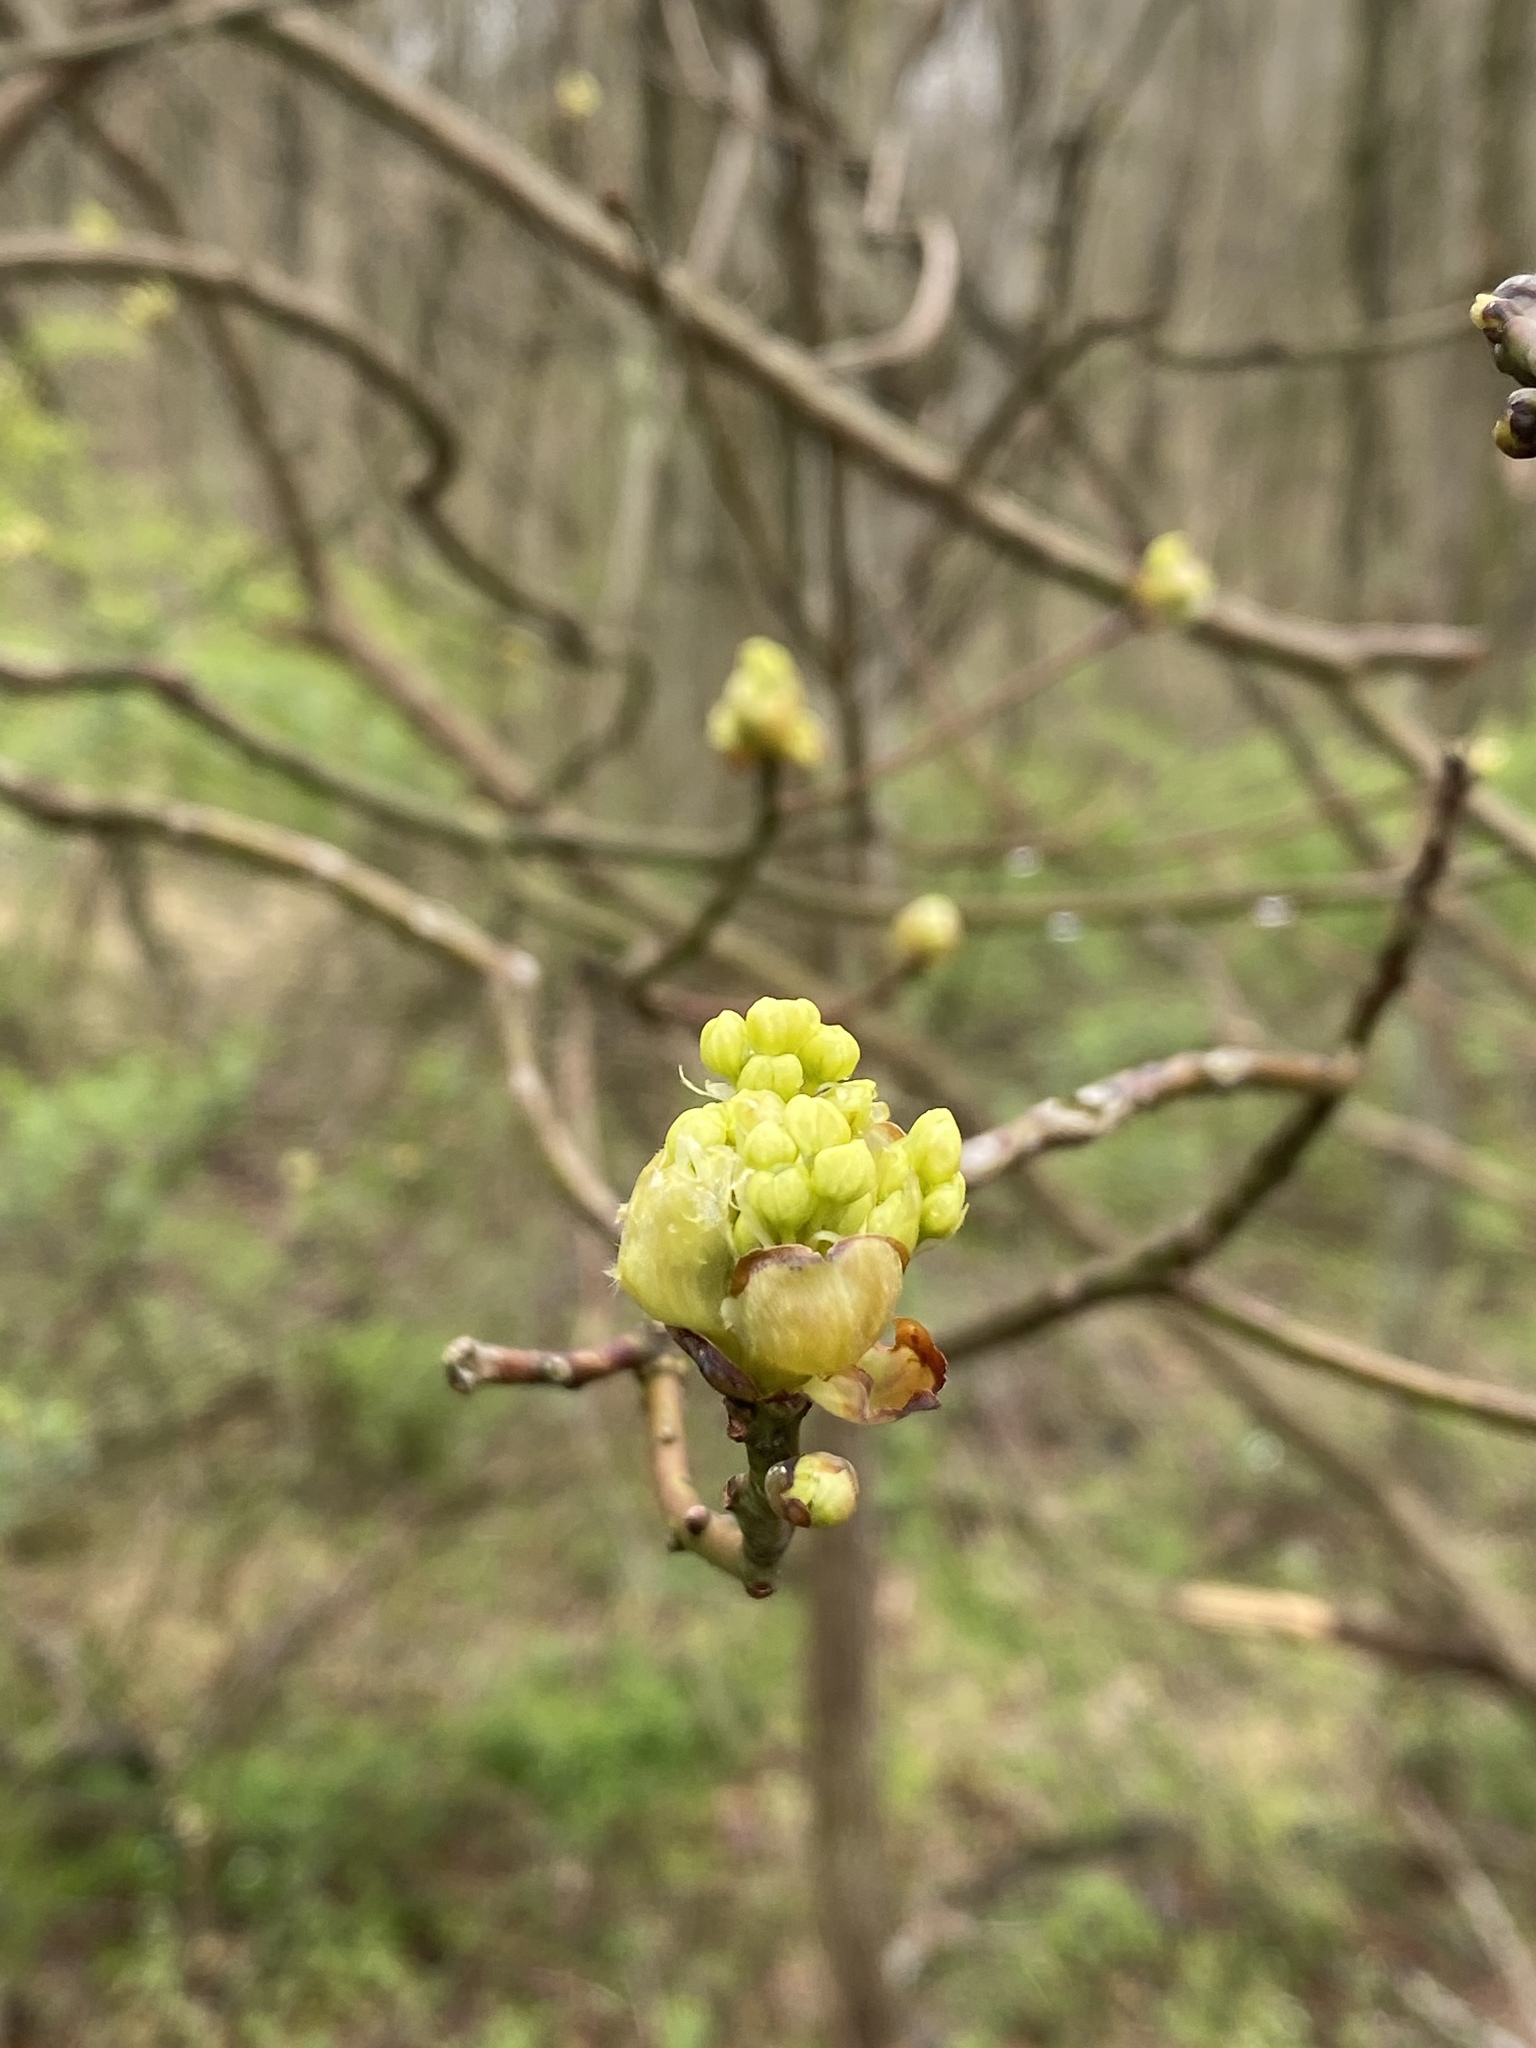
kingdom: Plantae
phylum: Tracheophyta
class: Magnoliopsida
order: Laurales
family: Lauraceae
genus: Sassafras
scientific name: Sassafras albidum
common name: Sassafras
